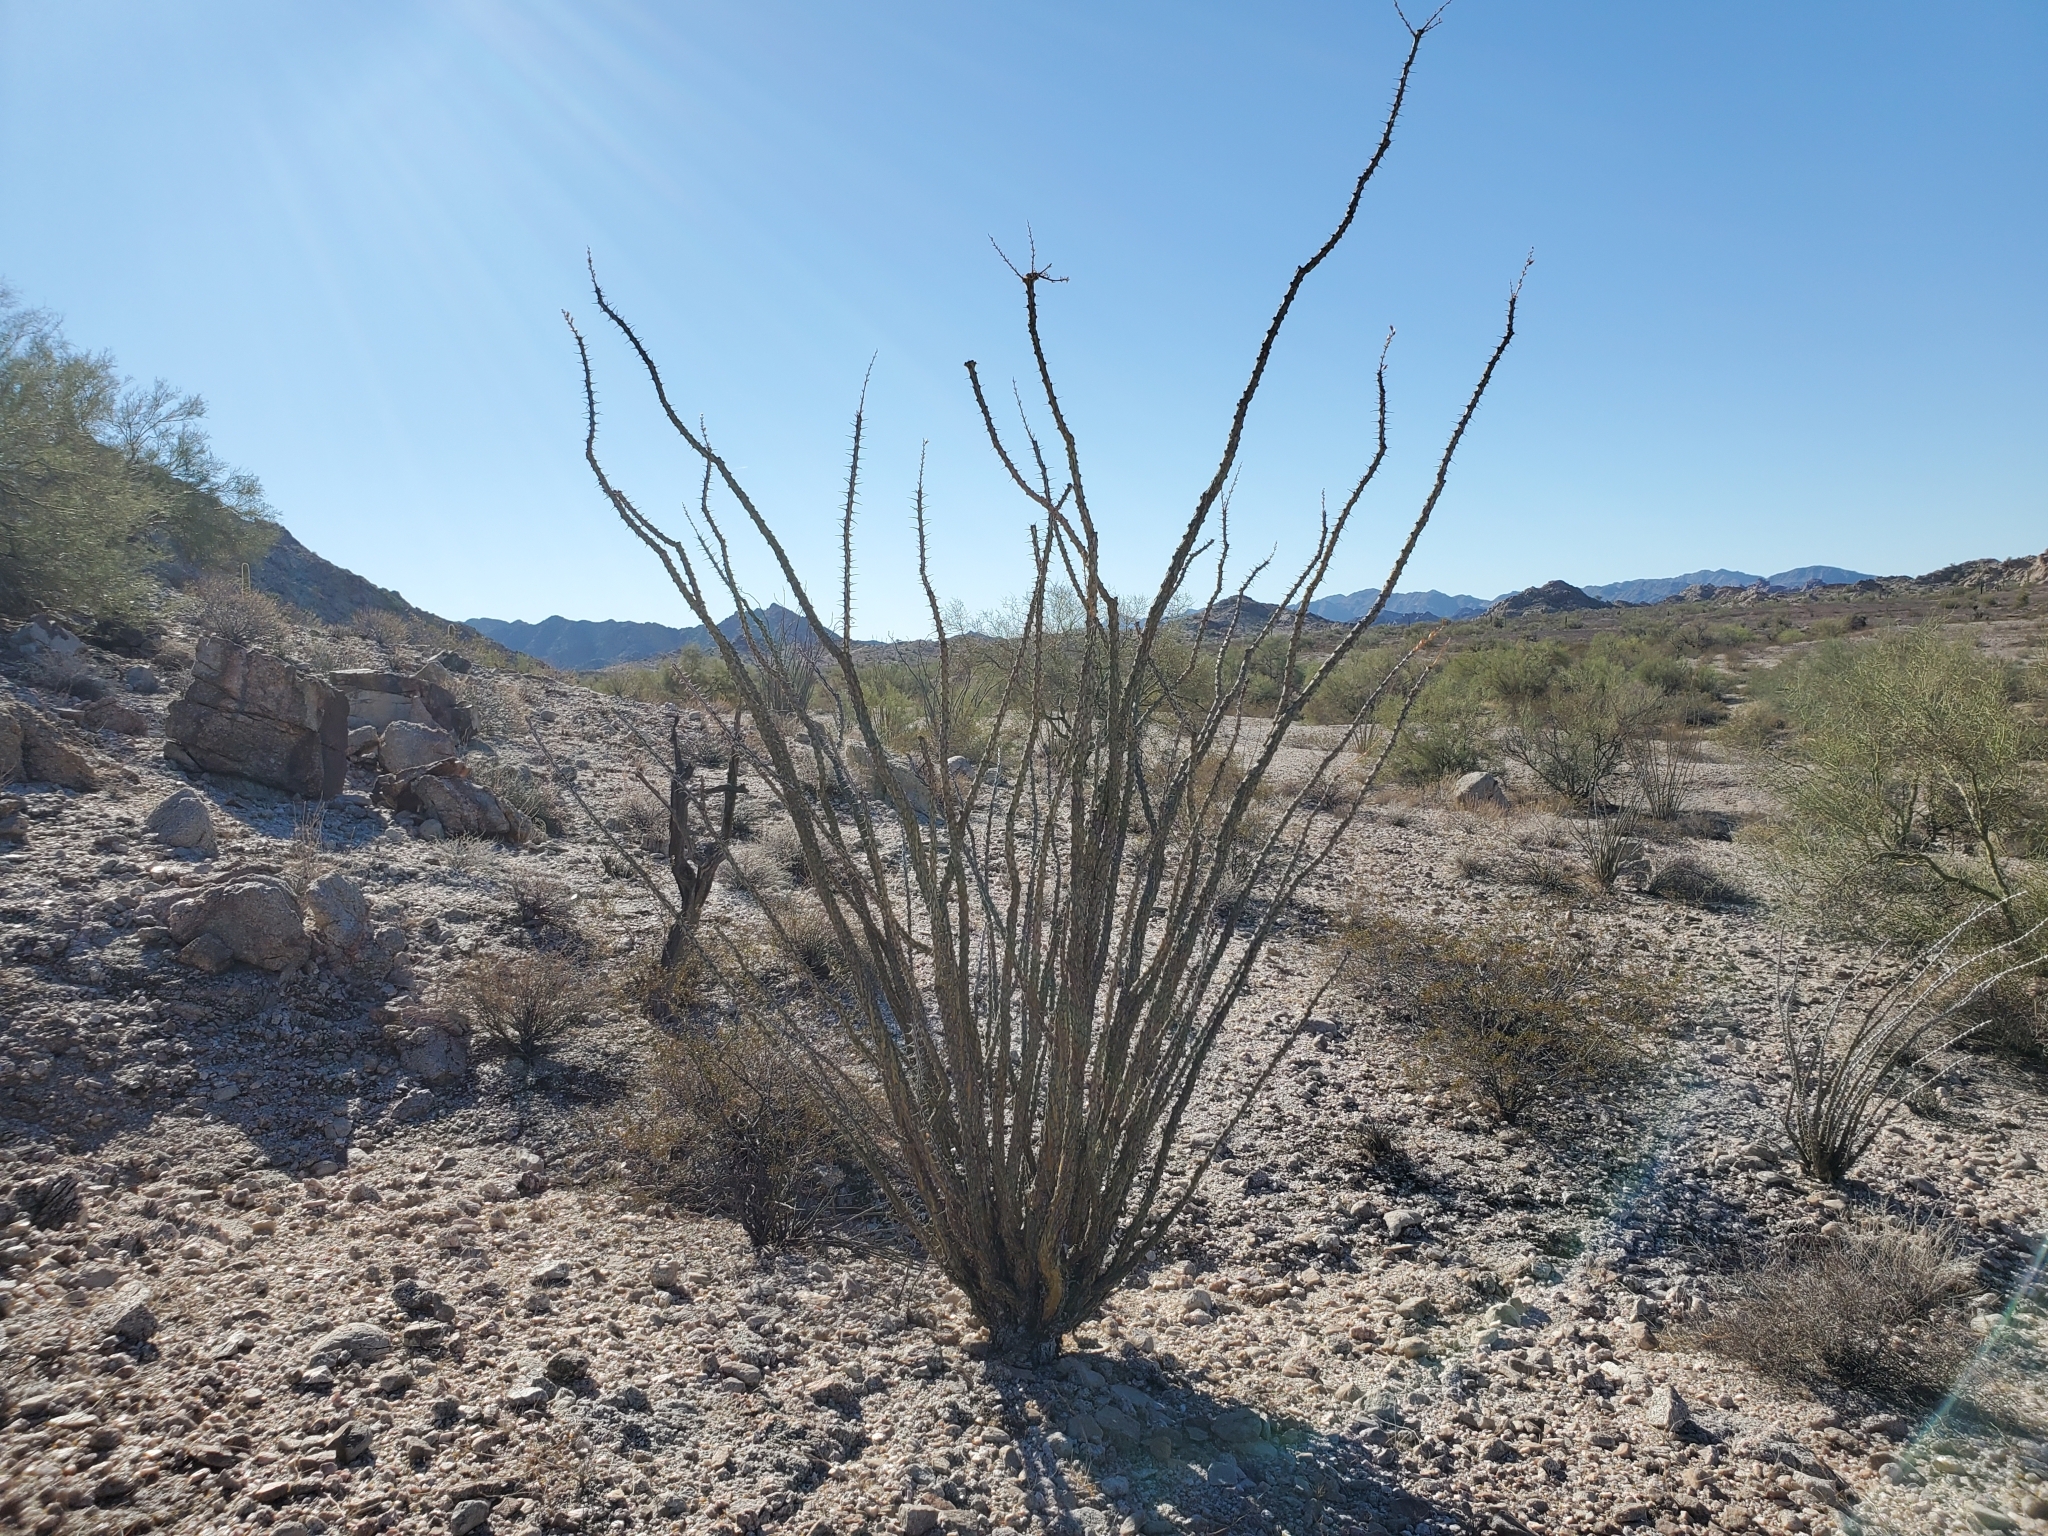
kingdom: Plantae
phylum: Tracheophyta
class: Magnoliopsida
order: Ericales
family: Fouquieriaceae
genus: Fouquieria
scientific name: Fouquieria splendens
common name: Vine-cactus
